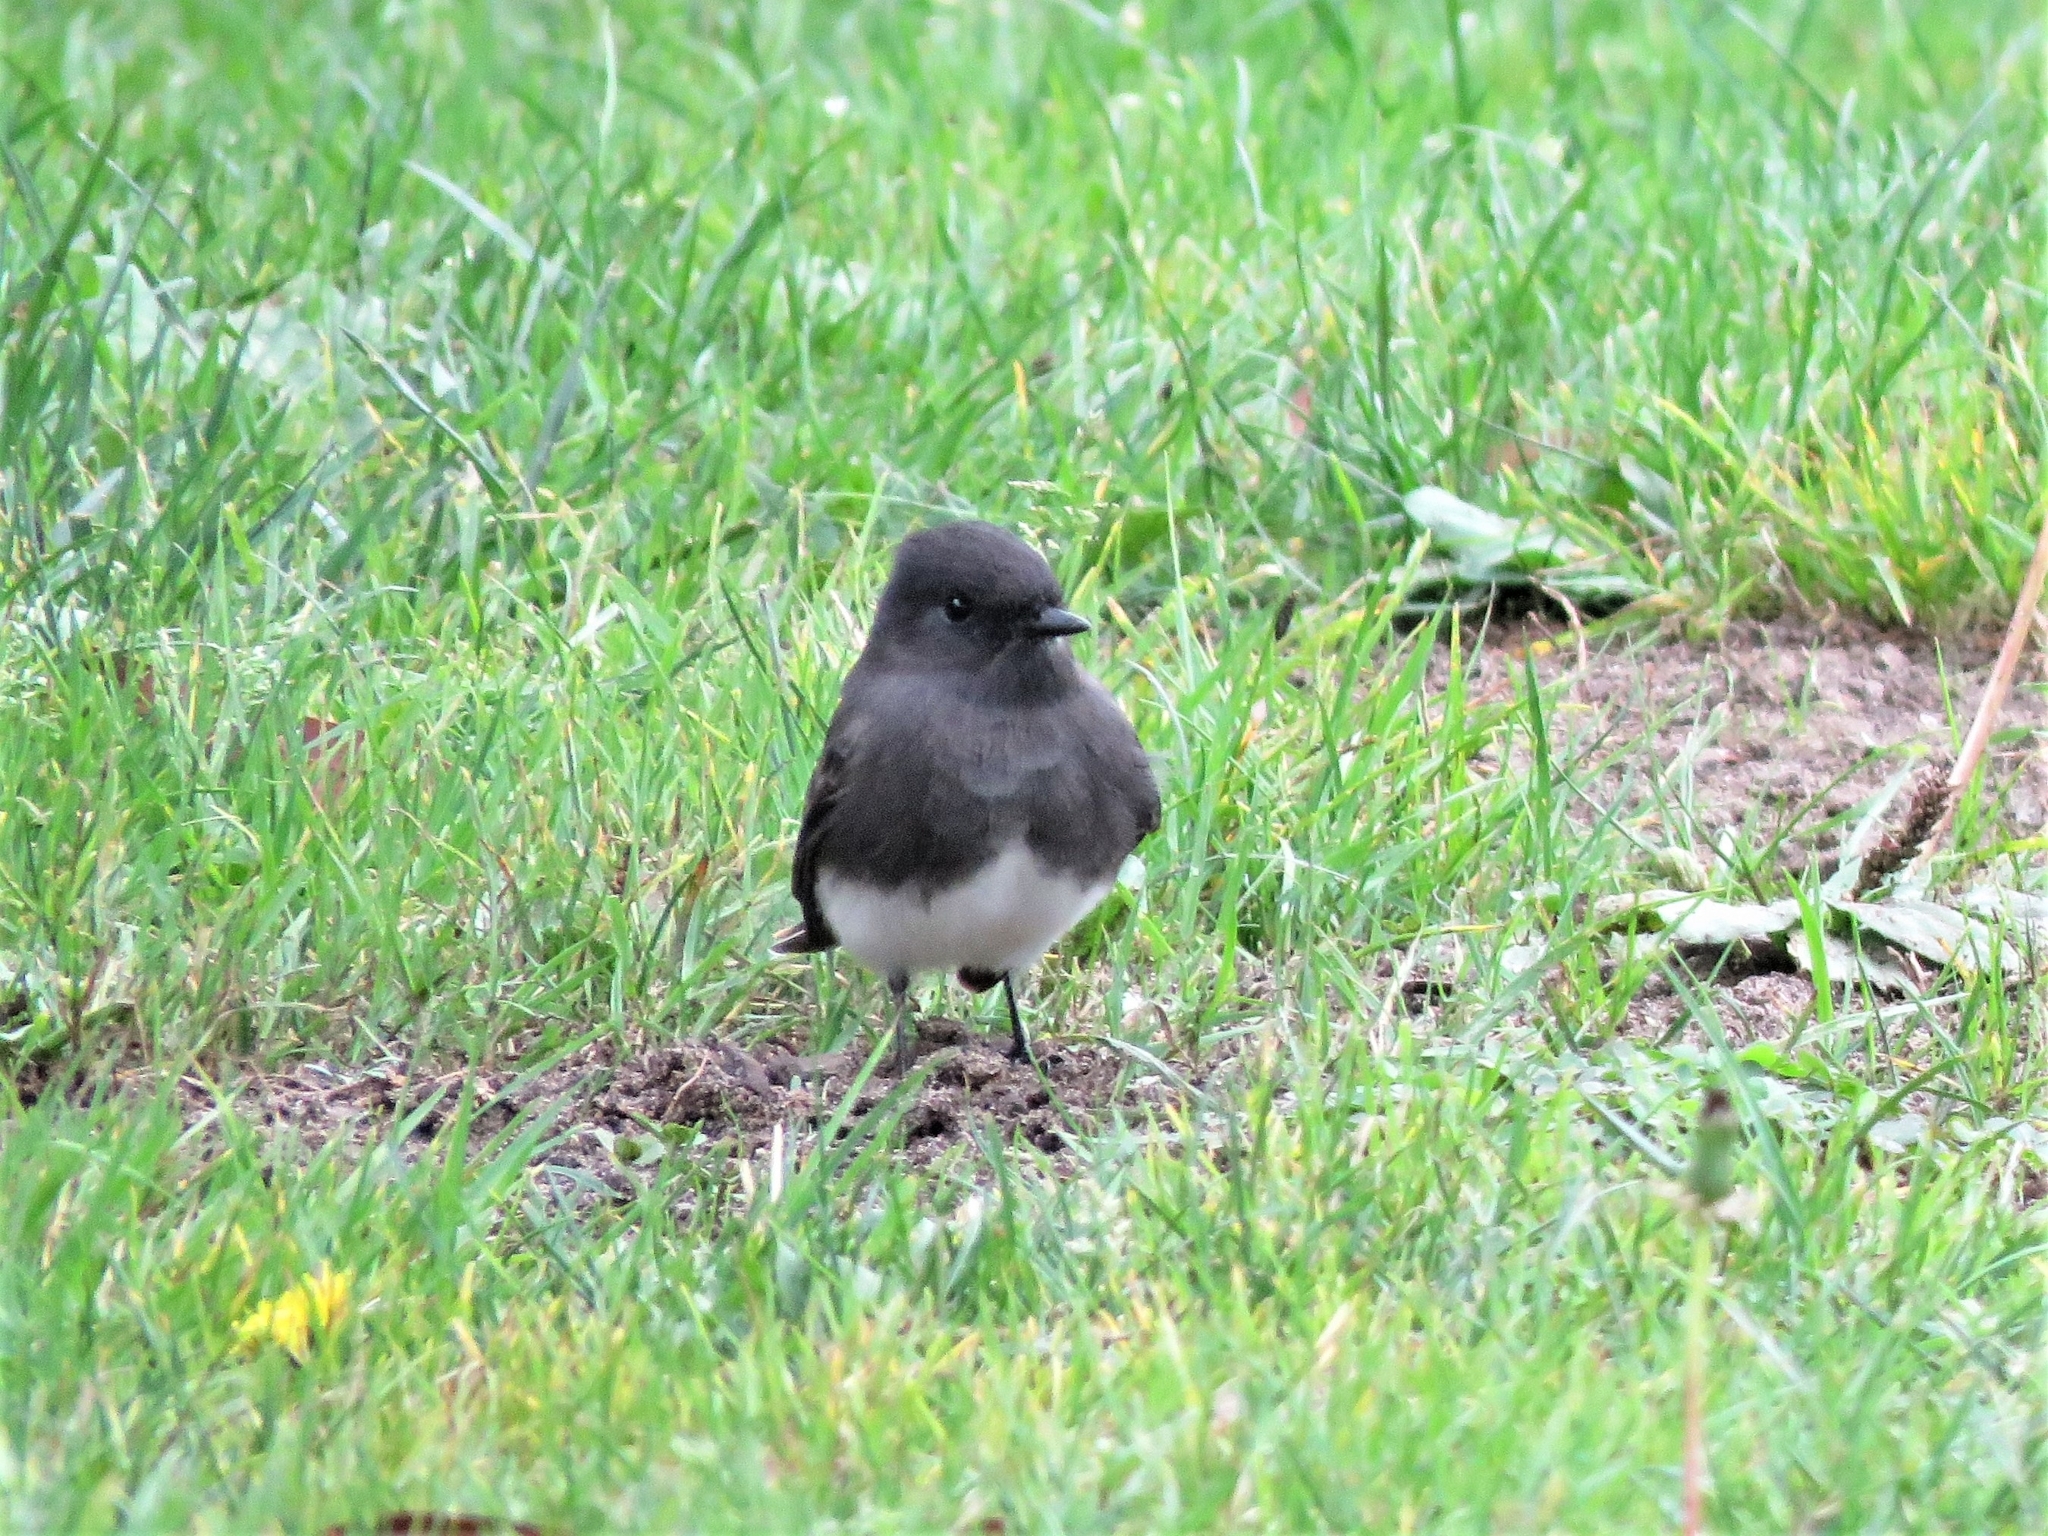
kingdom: Animalia
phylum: Chordata
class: Aves
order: Passeriformes
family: Tyrannidae
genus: Sayornis
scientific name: Sayornis nigricans
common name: Black phoebe
